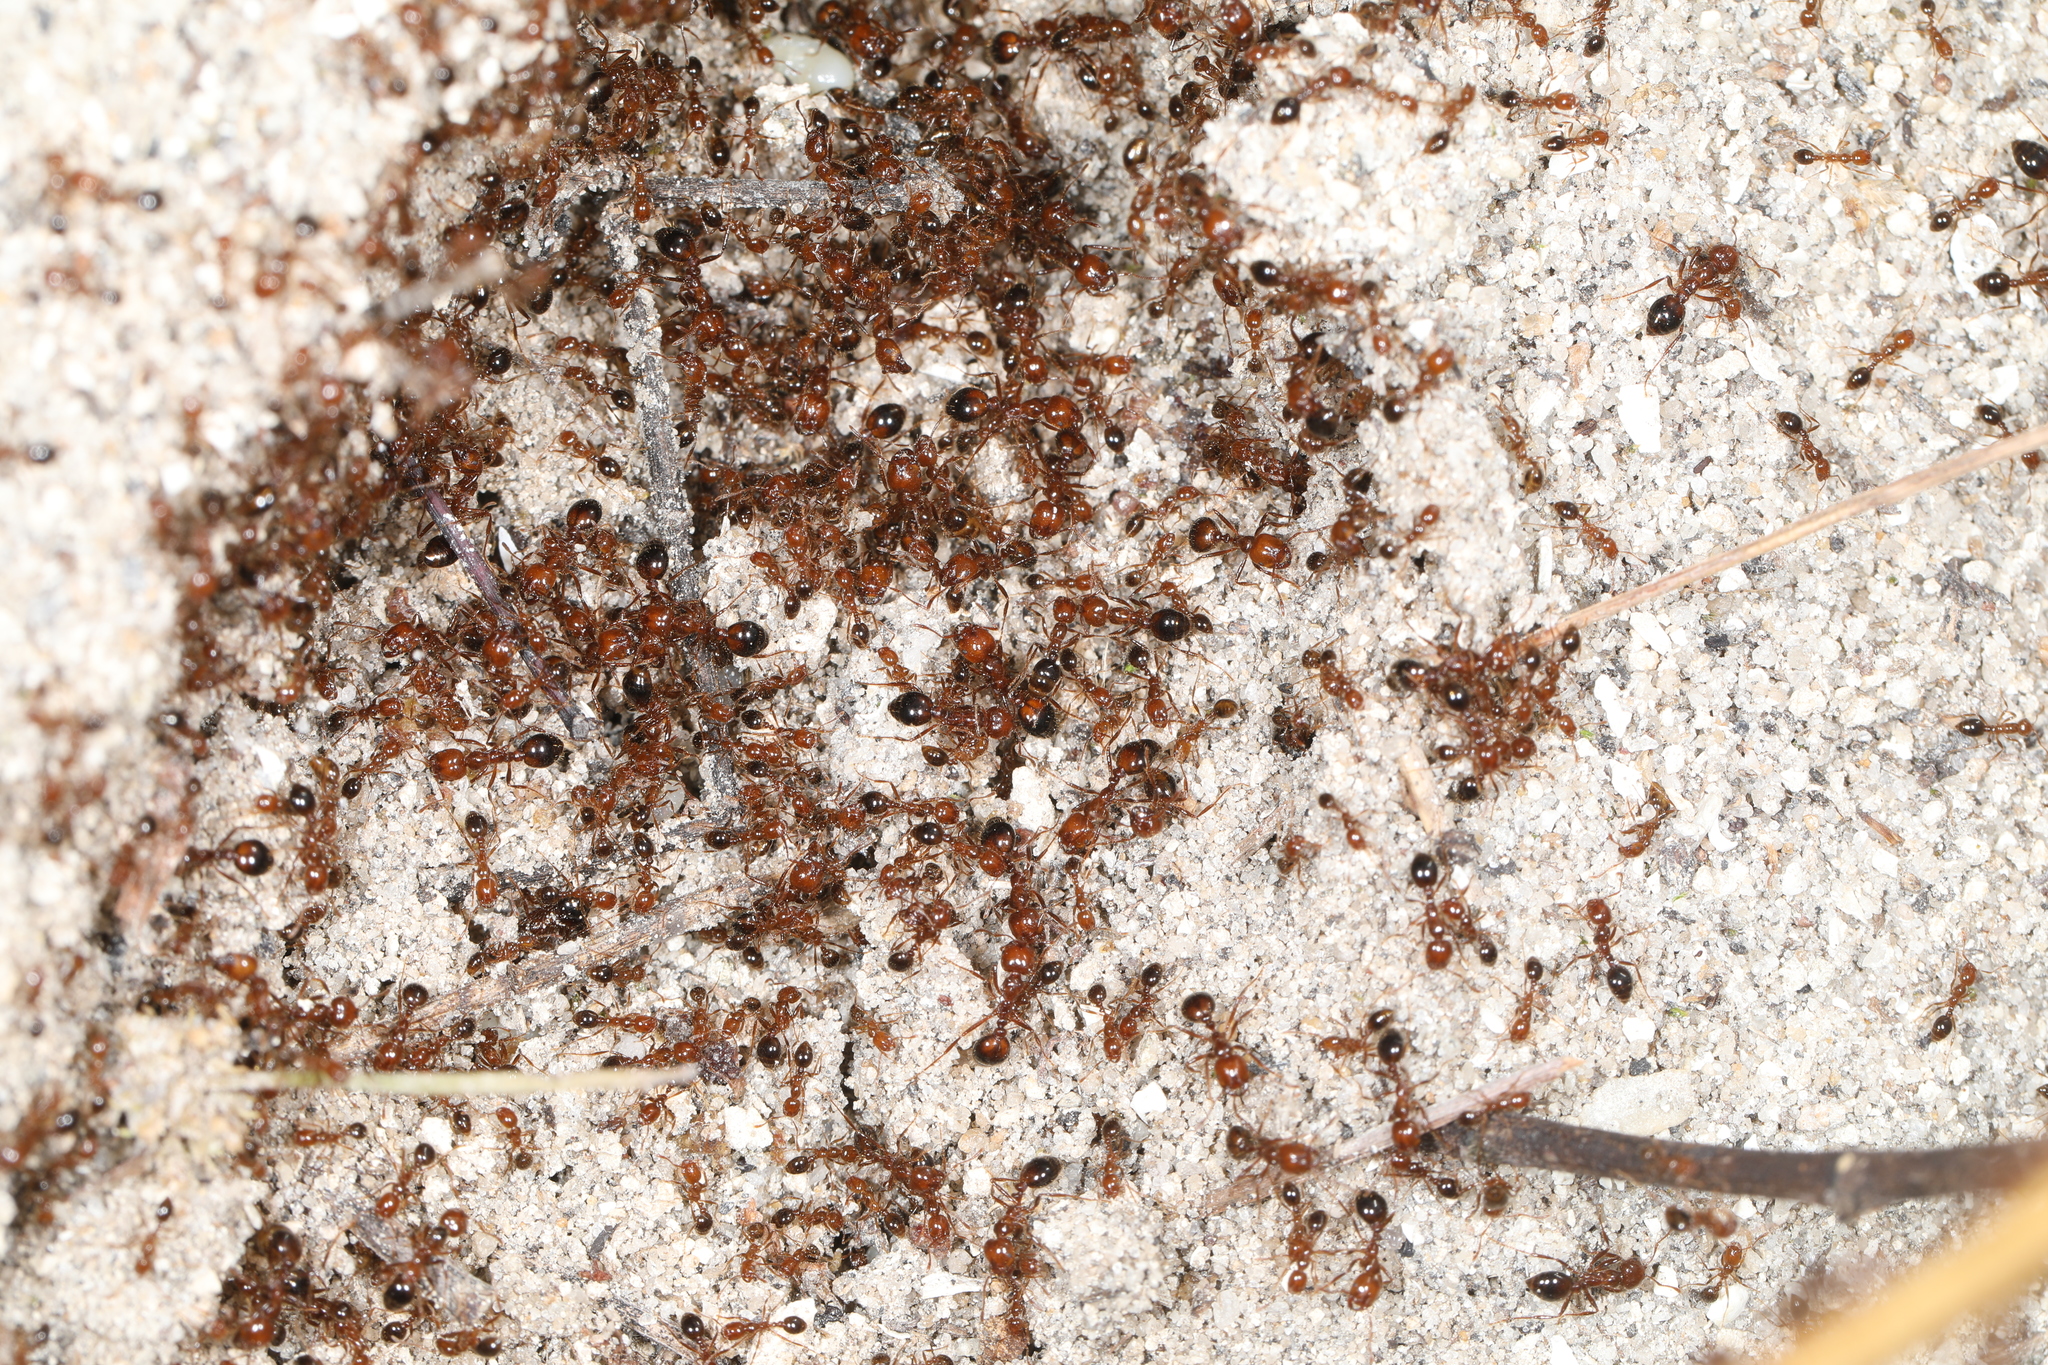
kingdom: Animalia
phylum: Arthropoda
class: Insecta
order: Hymenoptera
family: Formicidae
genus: Solenopsis
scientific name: Solenopsis invicta
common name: Red imported fire ant
